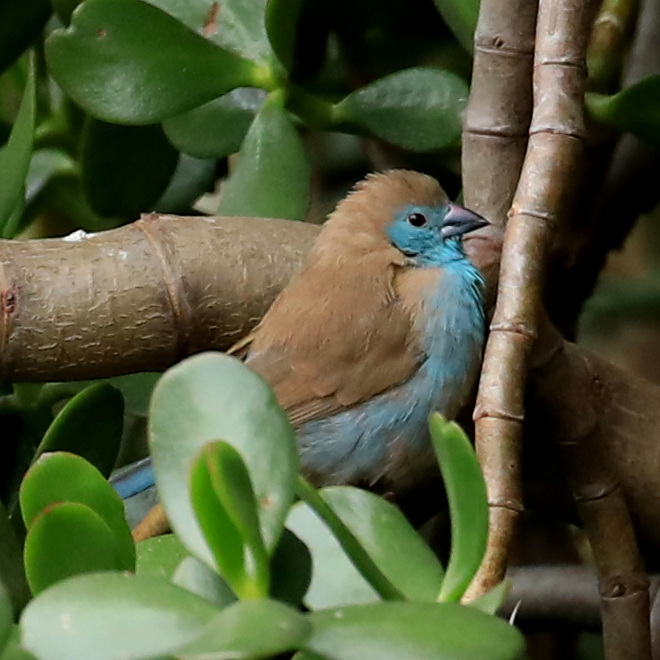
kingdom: Animalia
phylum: Chordata
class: Aves
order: Passeriformes
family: Estrildidae
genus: Uraeginthus
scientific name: Uraeginthus angolensis
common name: Blue waxbill
